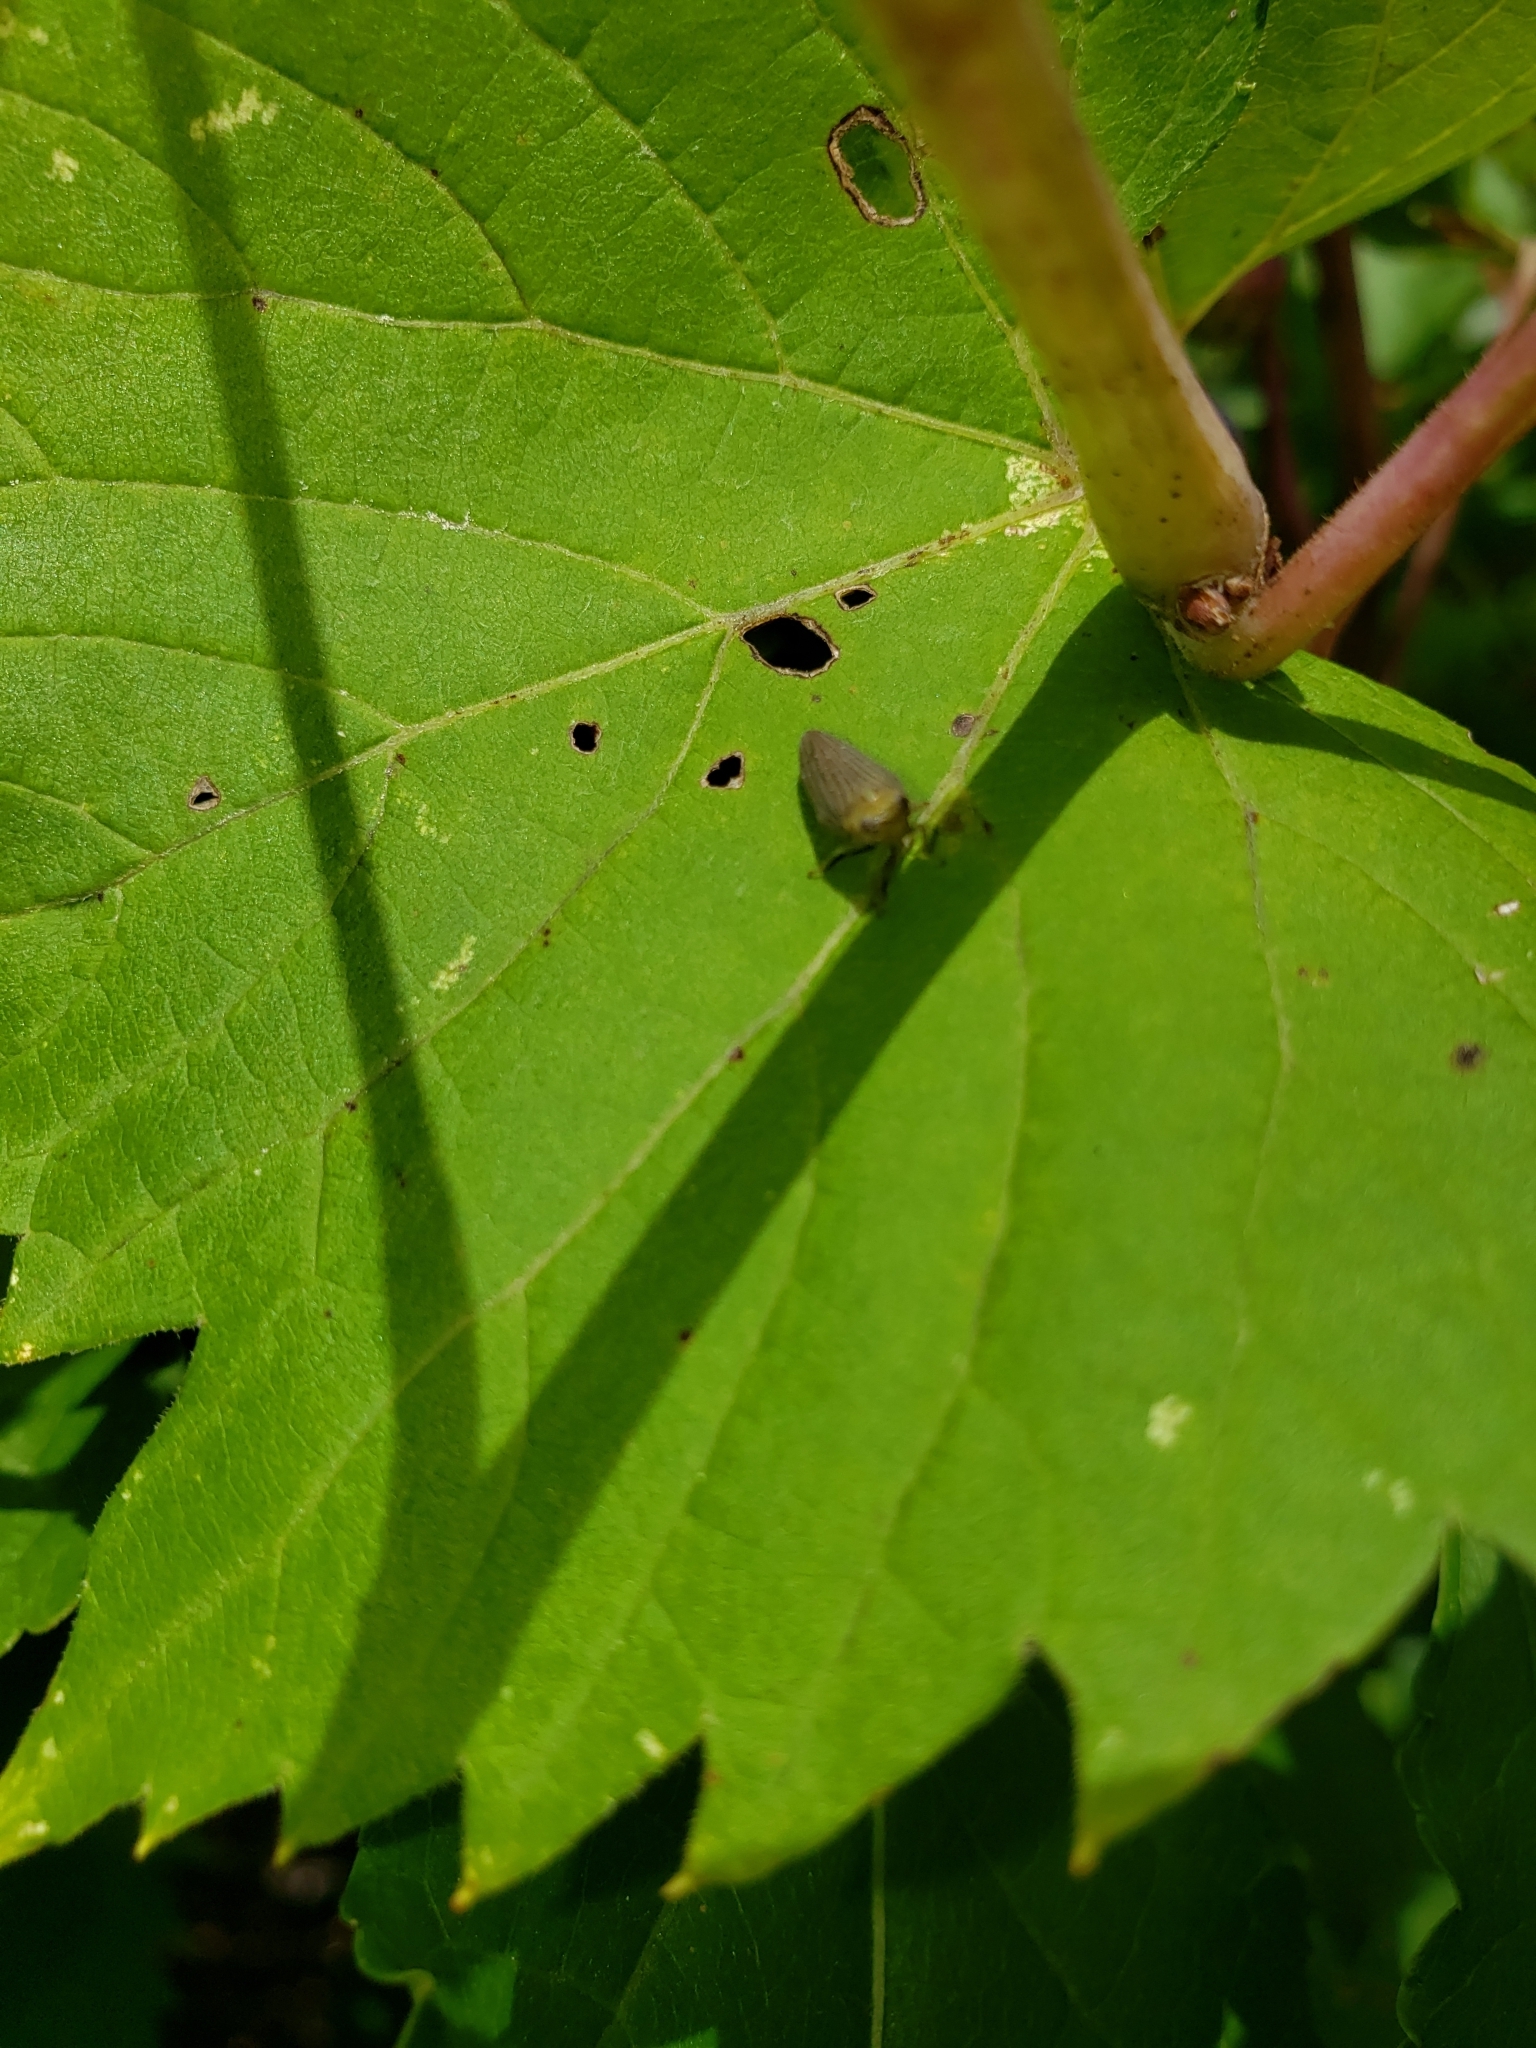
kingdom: Animalia
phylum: Arthropoda
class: Insecta
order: Hemiptera
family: Issidae
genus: Aplos
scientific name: Aplos simplex
